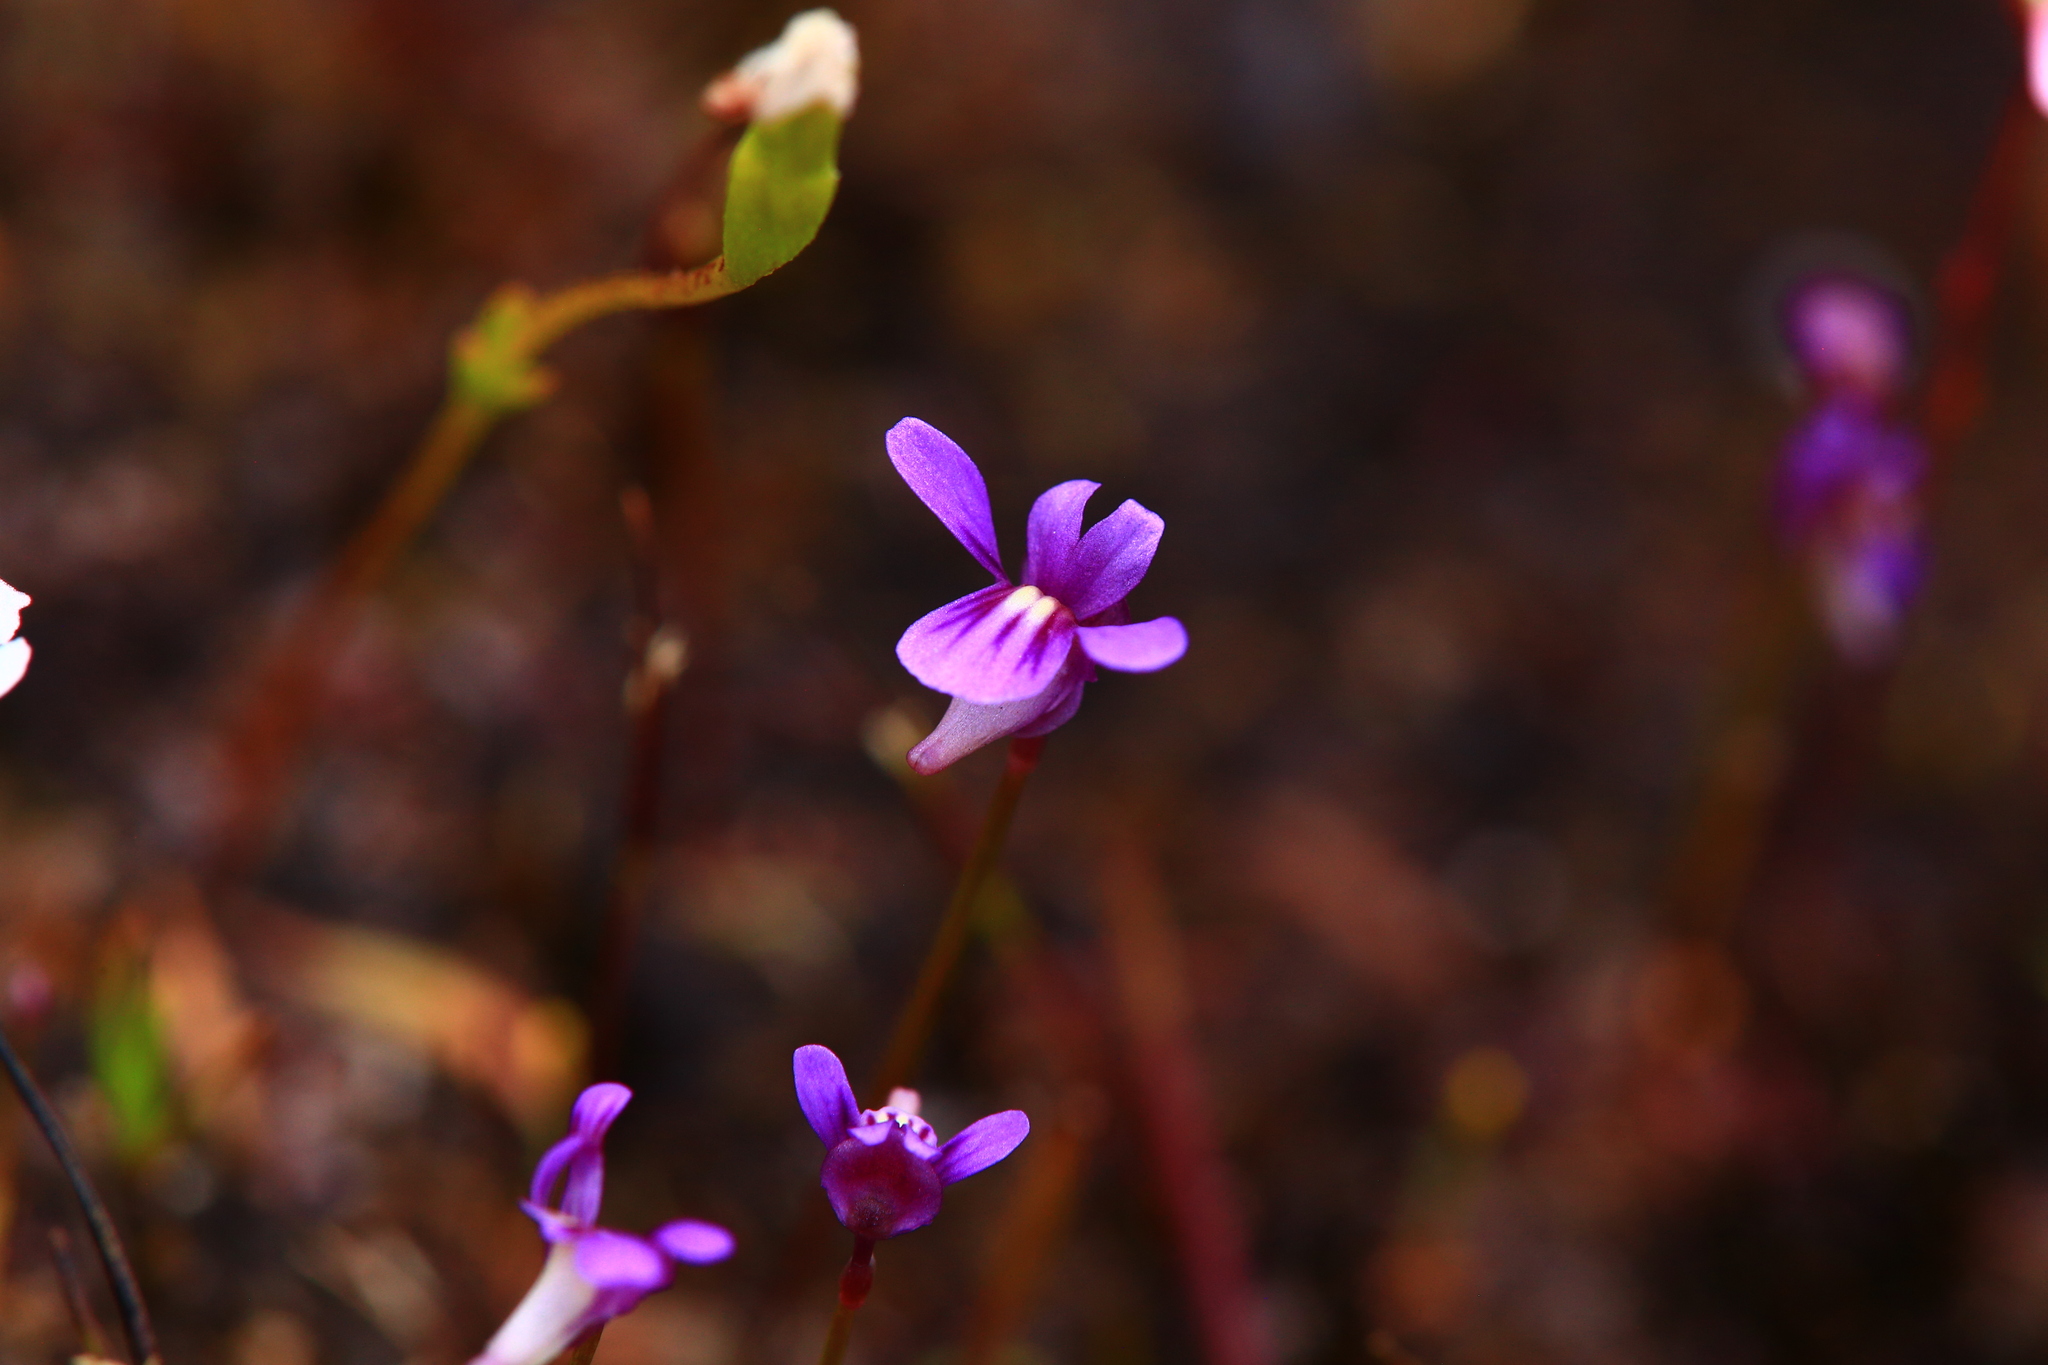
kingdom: Plantae
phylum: Tracheophyta
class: Magnoliopsida
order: Lamiales
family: Lentibulariaceae
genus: Utricularia
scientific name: Utricularia violacea
